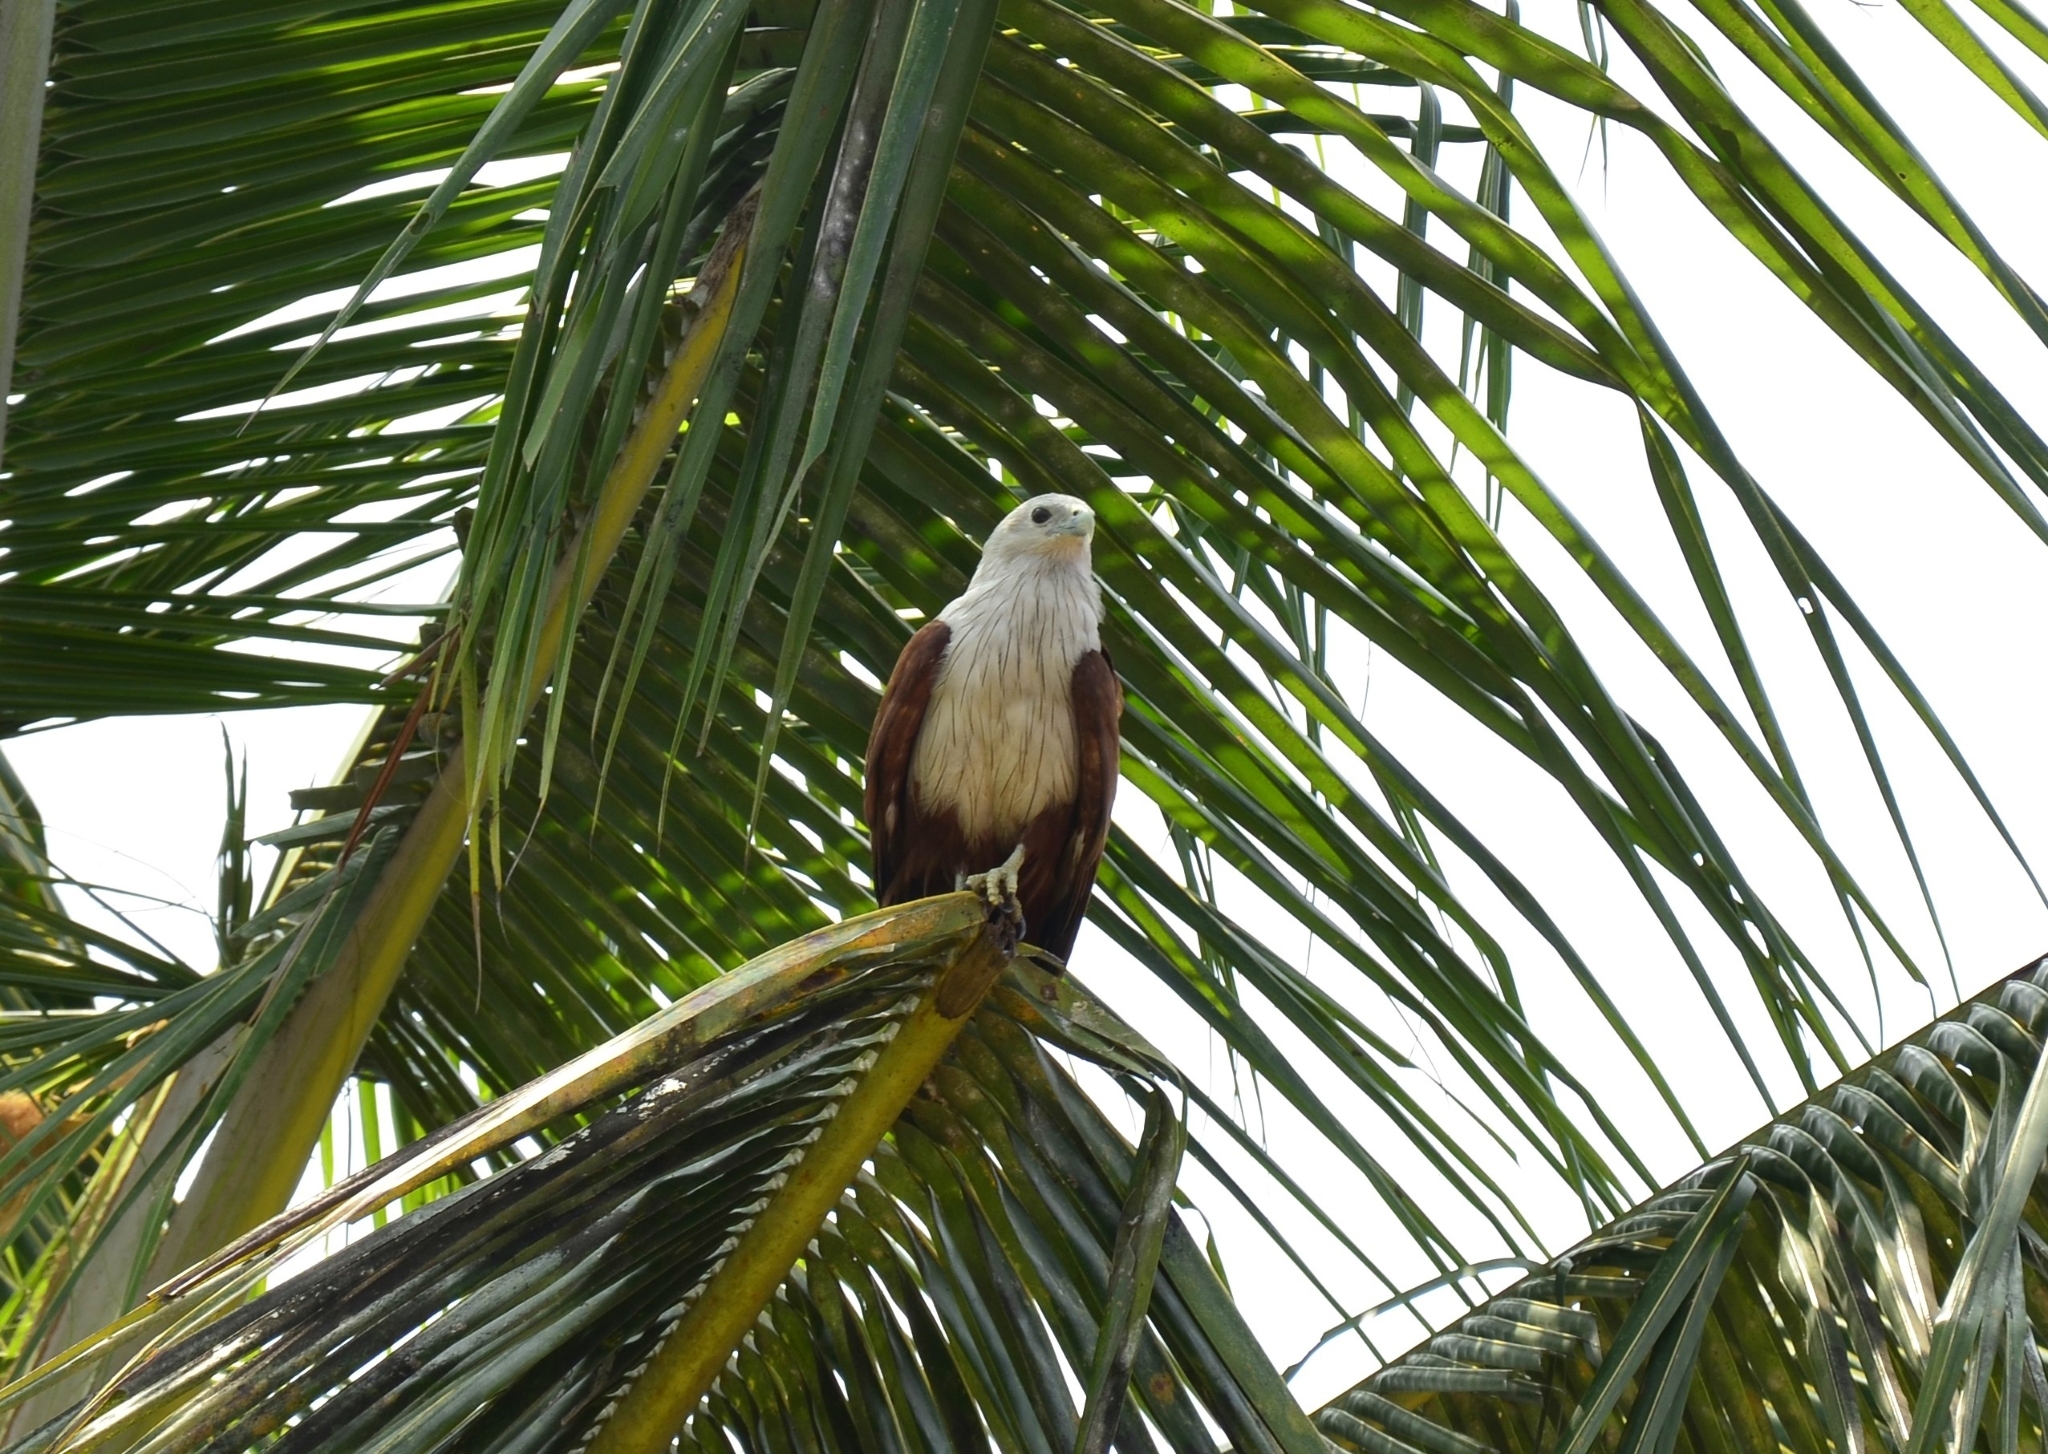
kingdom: Animalia
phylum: Chordata
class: Aves
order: Accipitriformes
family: Accipitridae
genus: Haliastur
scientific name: Haliastur indus
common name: Brahminy kite
